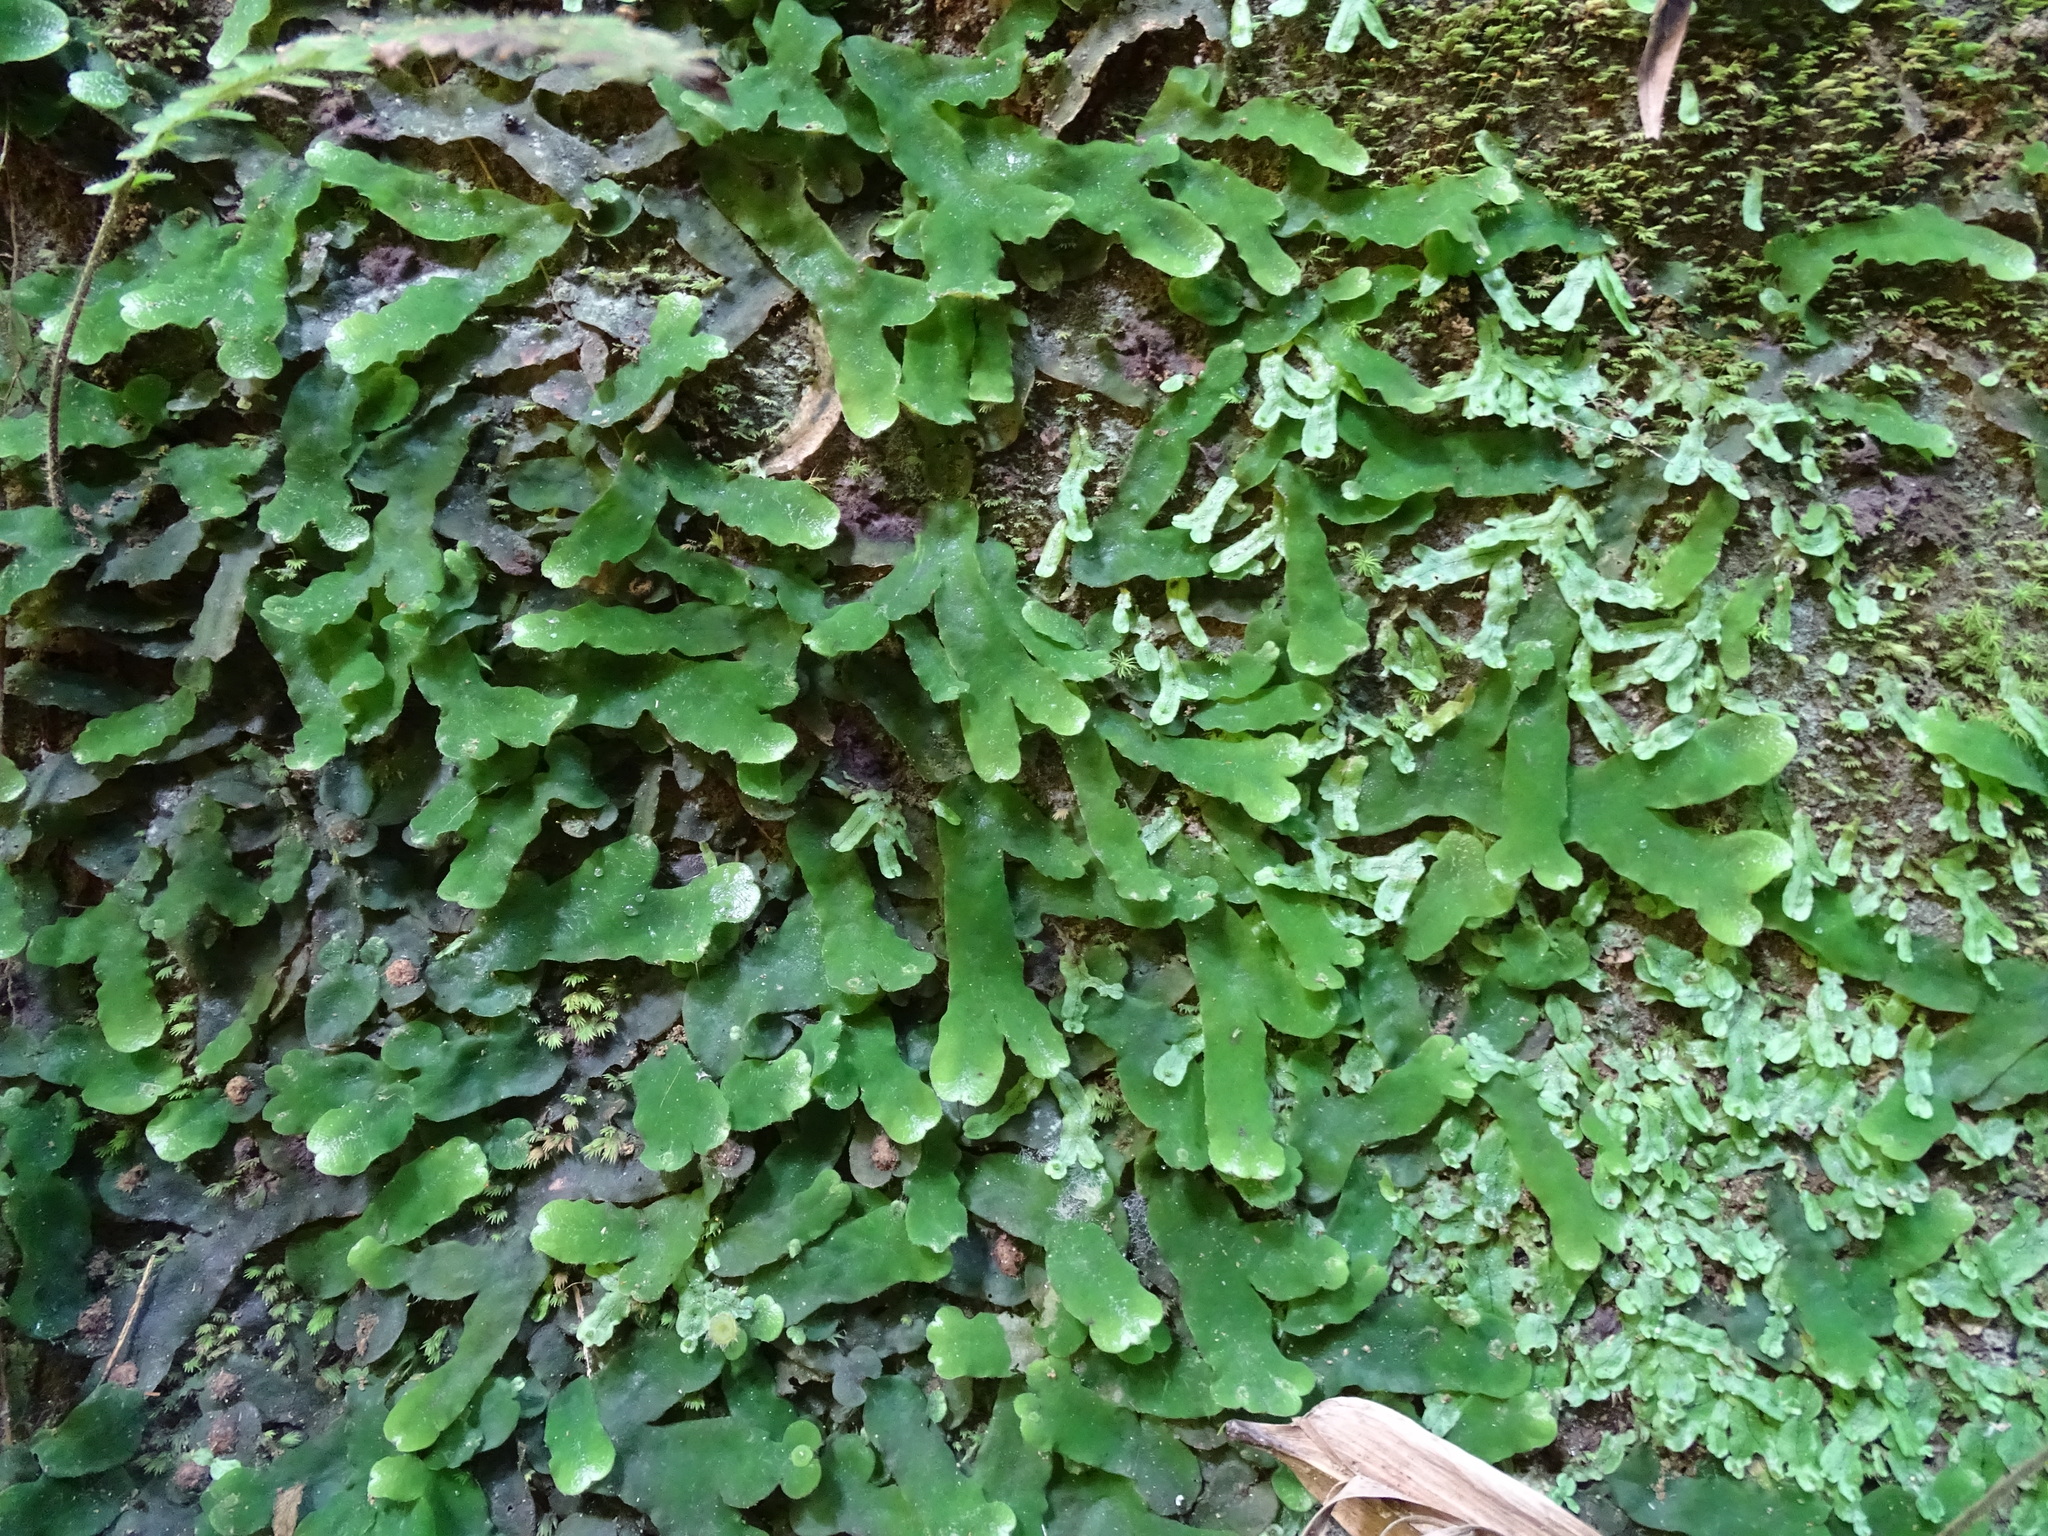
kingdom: Plantae
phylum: Marchantiophyta
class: Marchantiopsida
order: Marchantiales
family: Dumortieraceae
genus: Dumortiera
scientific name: Dumortiera hirsuta
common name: Dumortier's liverwort
